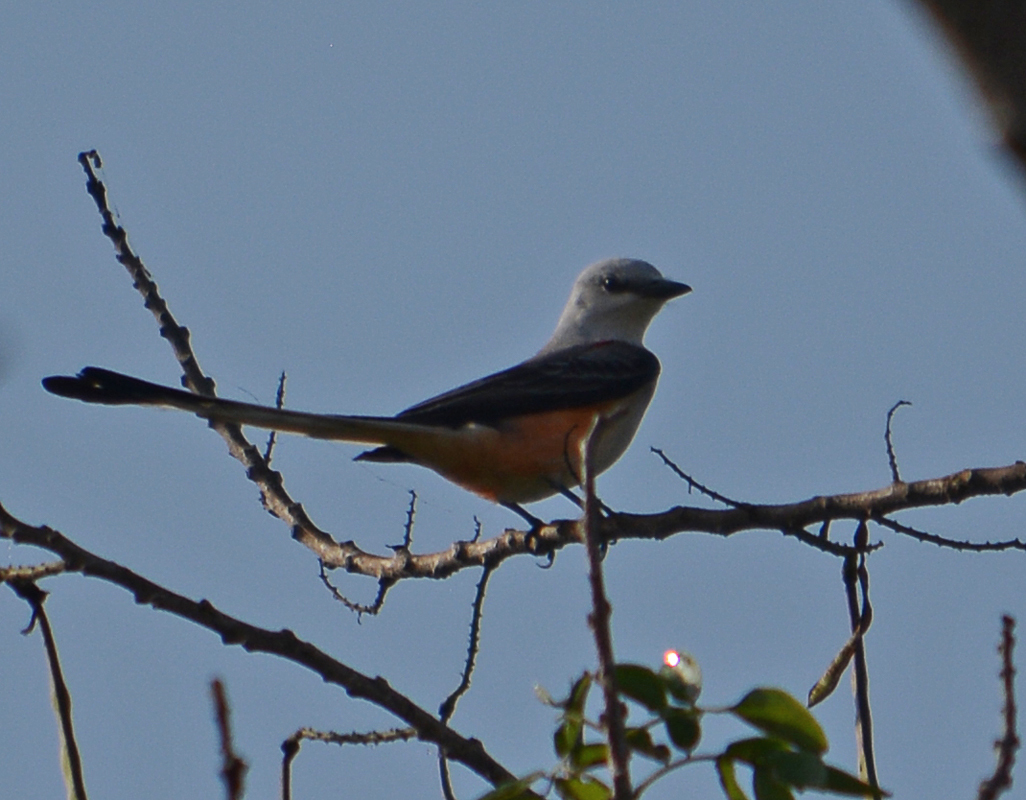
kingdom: Animalia
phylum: Chordata
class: Aves
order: Passeriformes
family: Tyrannidae
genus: Tyrannus
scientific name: Tyrannus forficatus
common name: Scissor-tailed flycatcher
